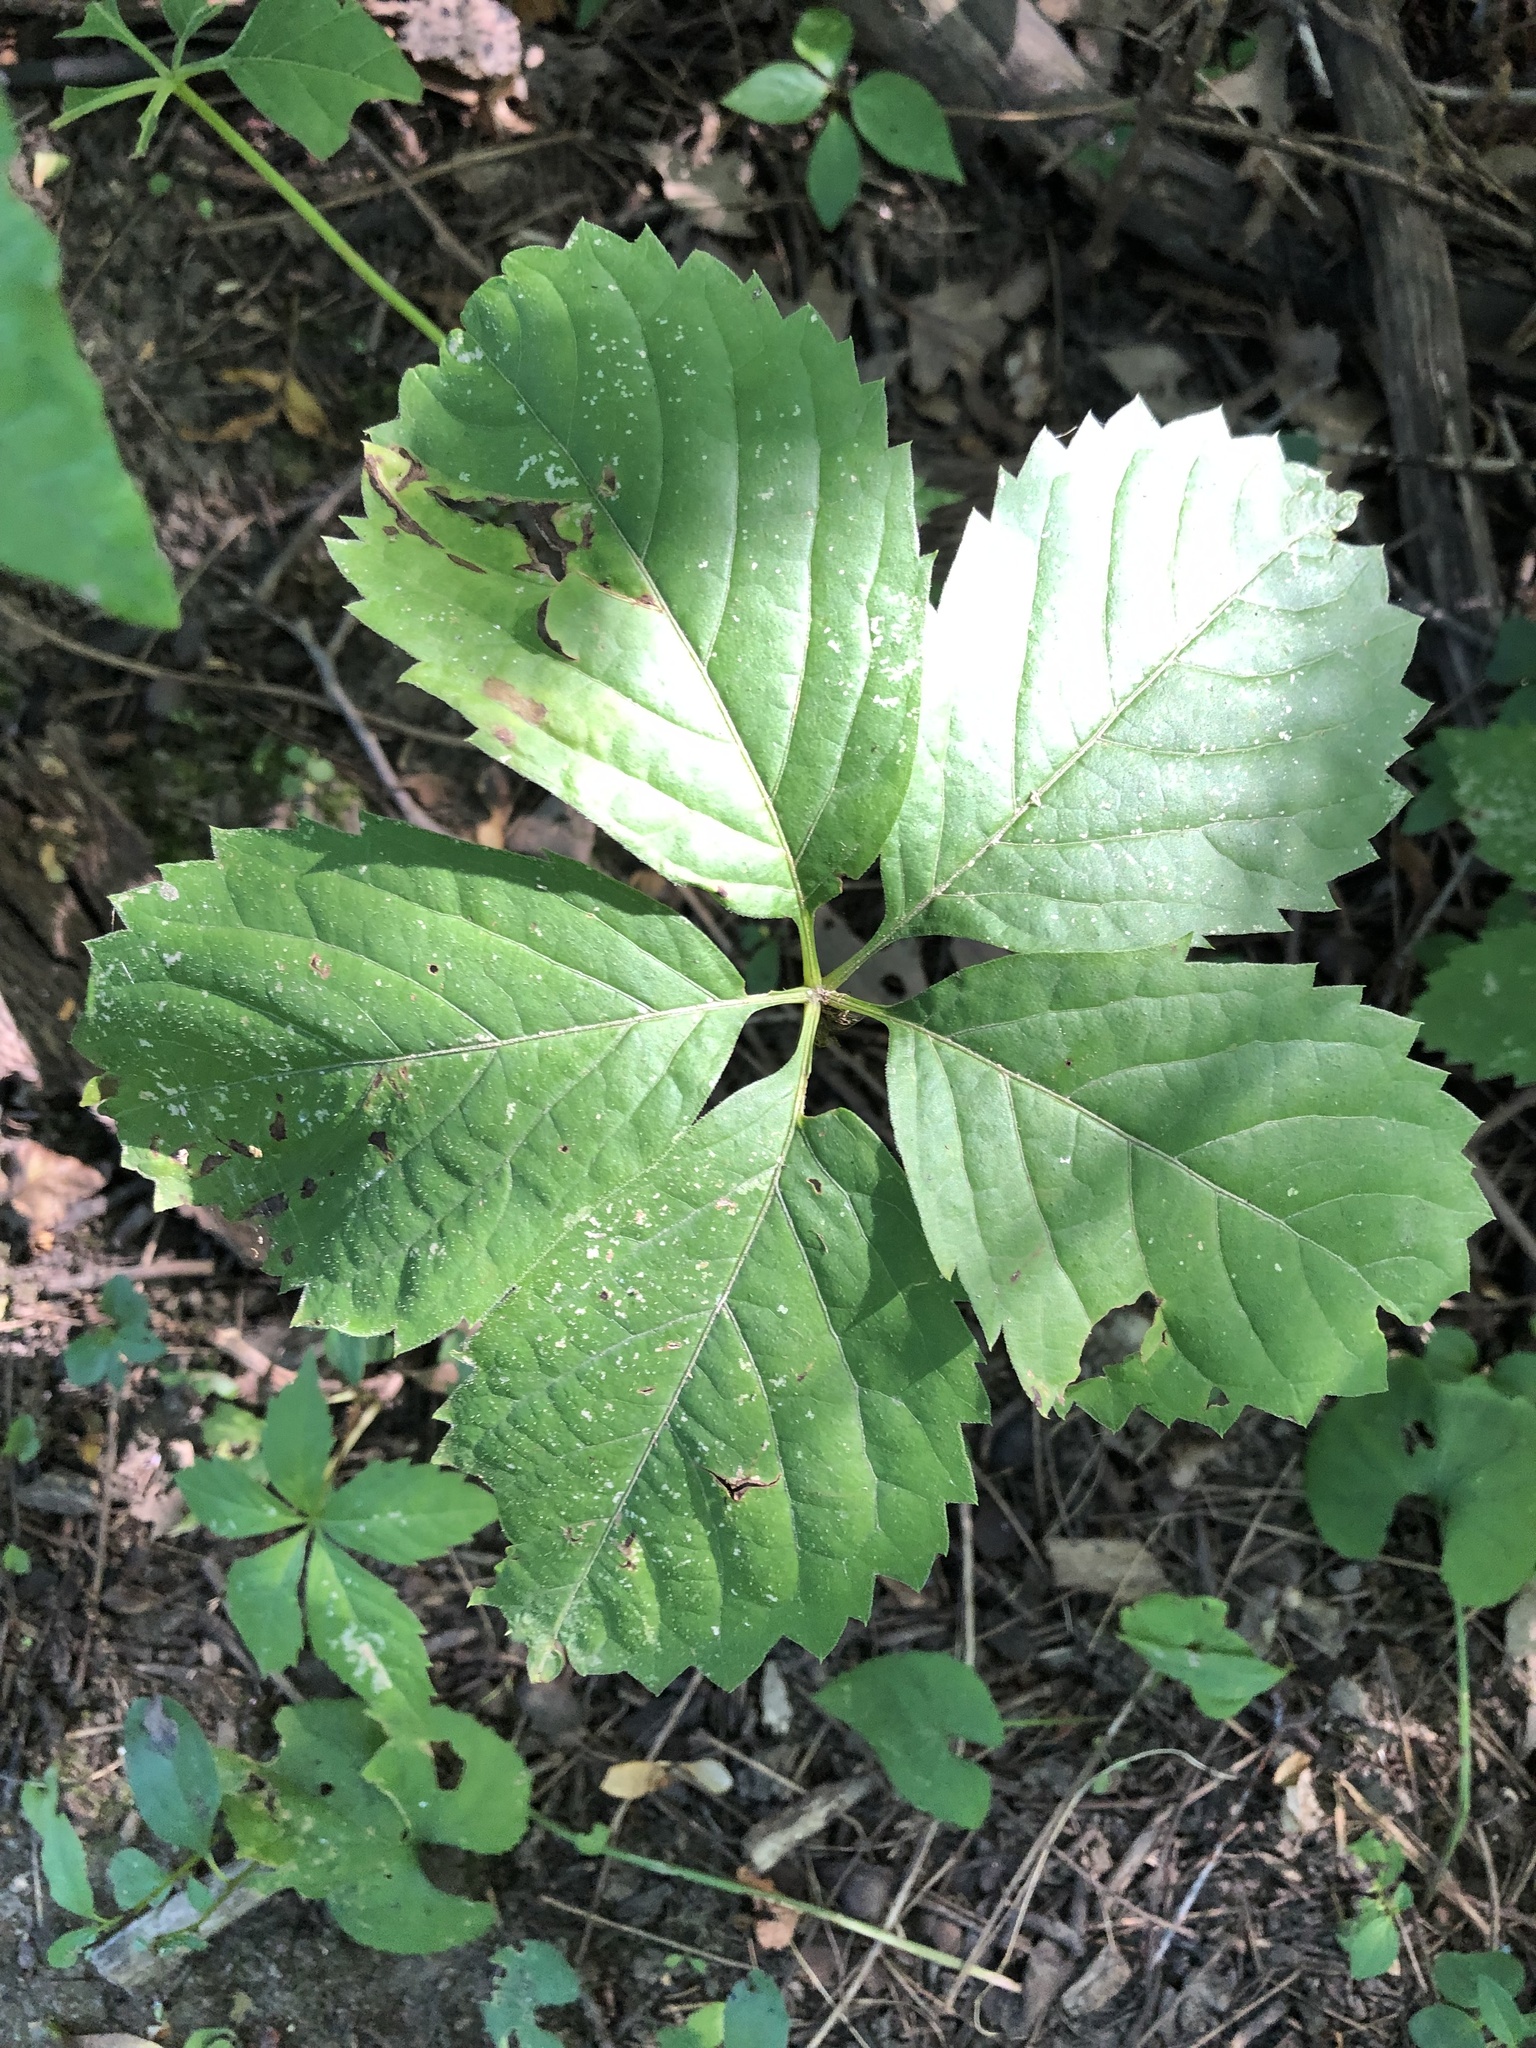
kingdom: Plantae
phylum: Tracheophyta
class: Magnoliopsida
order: Vitales
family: Vitaceae
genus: Parthenocissus
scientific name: Parthenocissus inserta
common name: False virginia-creeper
